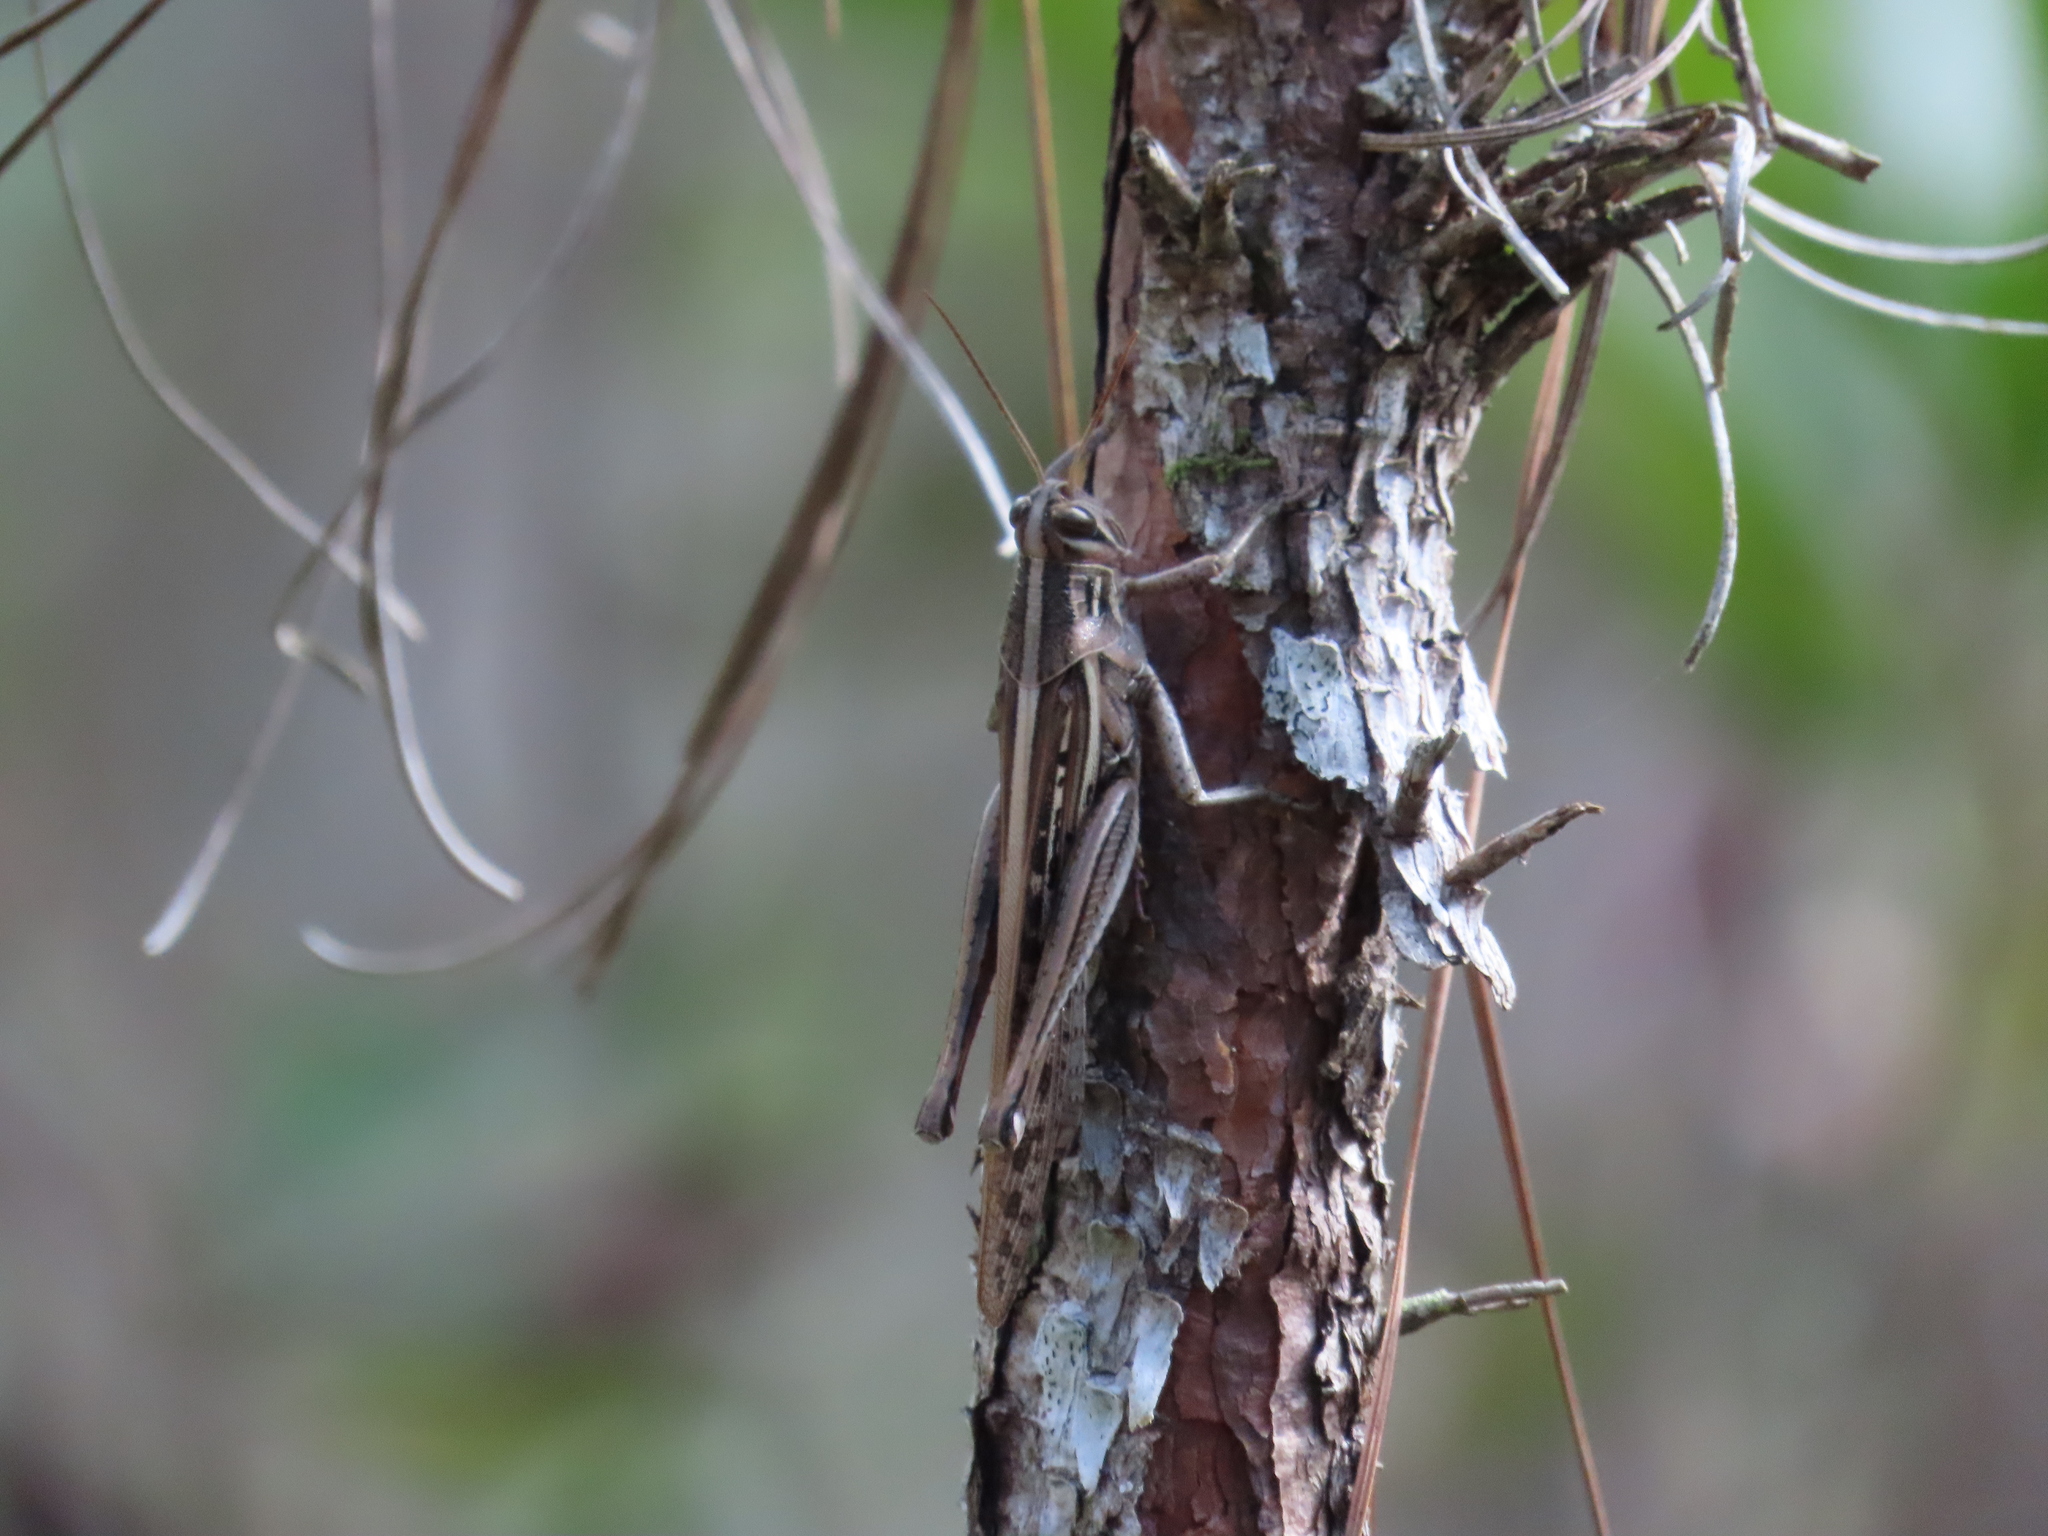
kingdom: Animalia
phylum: Arthropoda
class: Insecta
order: Orthoptera
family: Acrididae
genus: Schistocerca
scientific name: Schistocerca americana
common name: American bird locust
